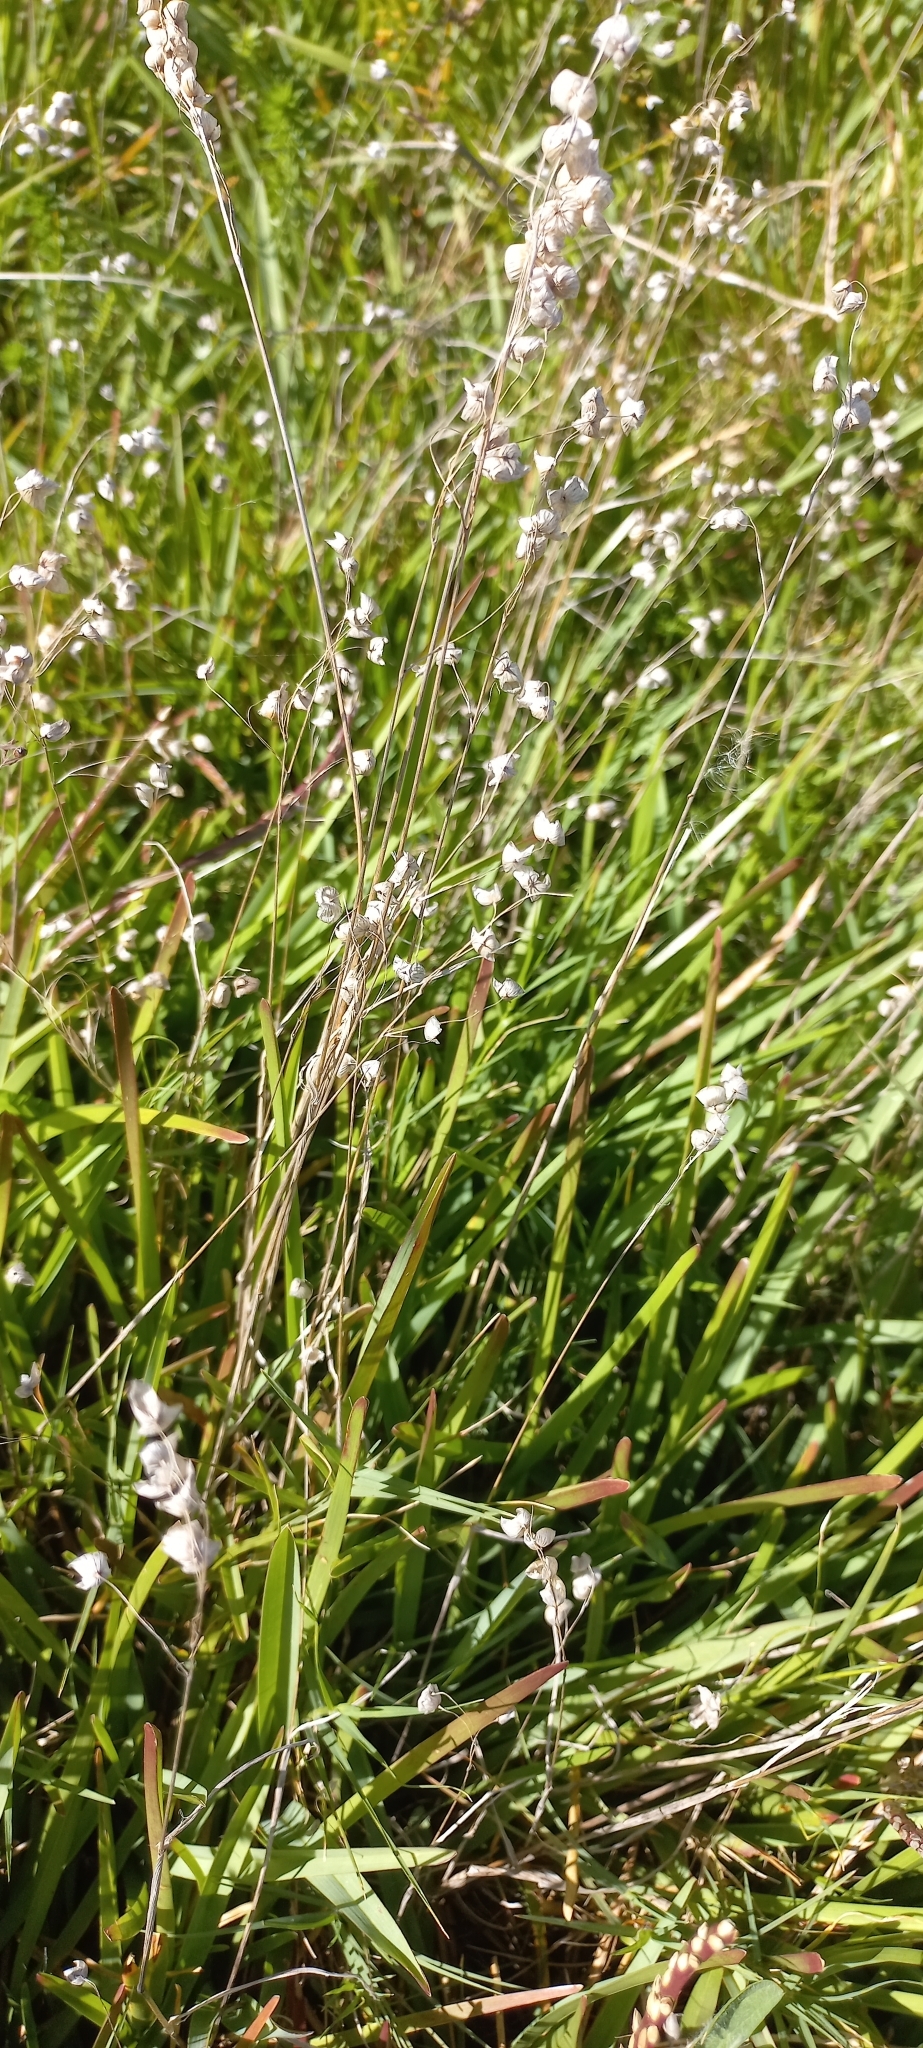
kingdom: Plantae
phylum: Tracheophyta
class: Liliopsida
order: Poales
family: Poaceae
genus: Briza
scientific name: Briza maxima
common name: Big quakinggrass
